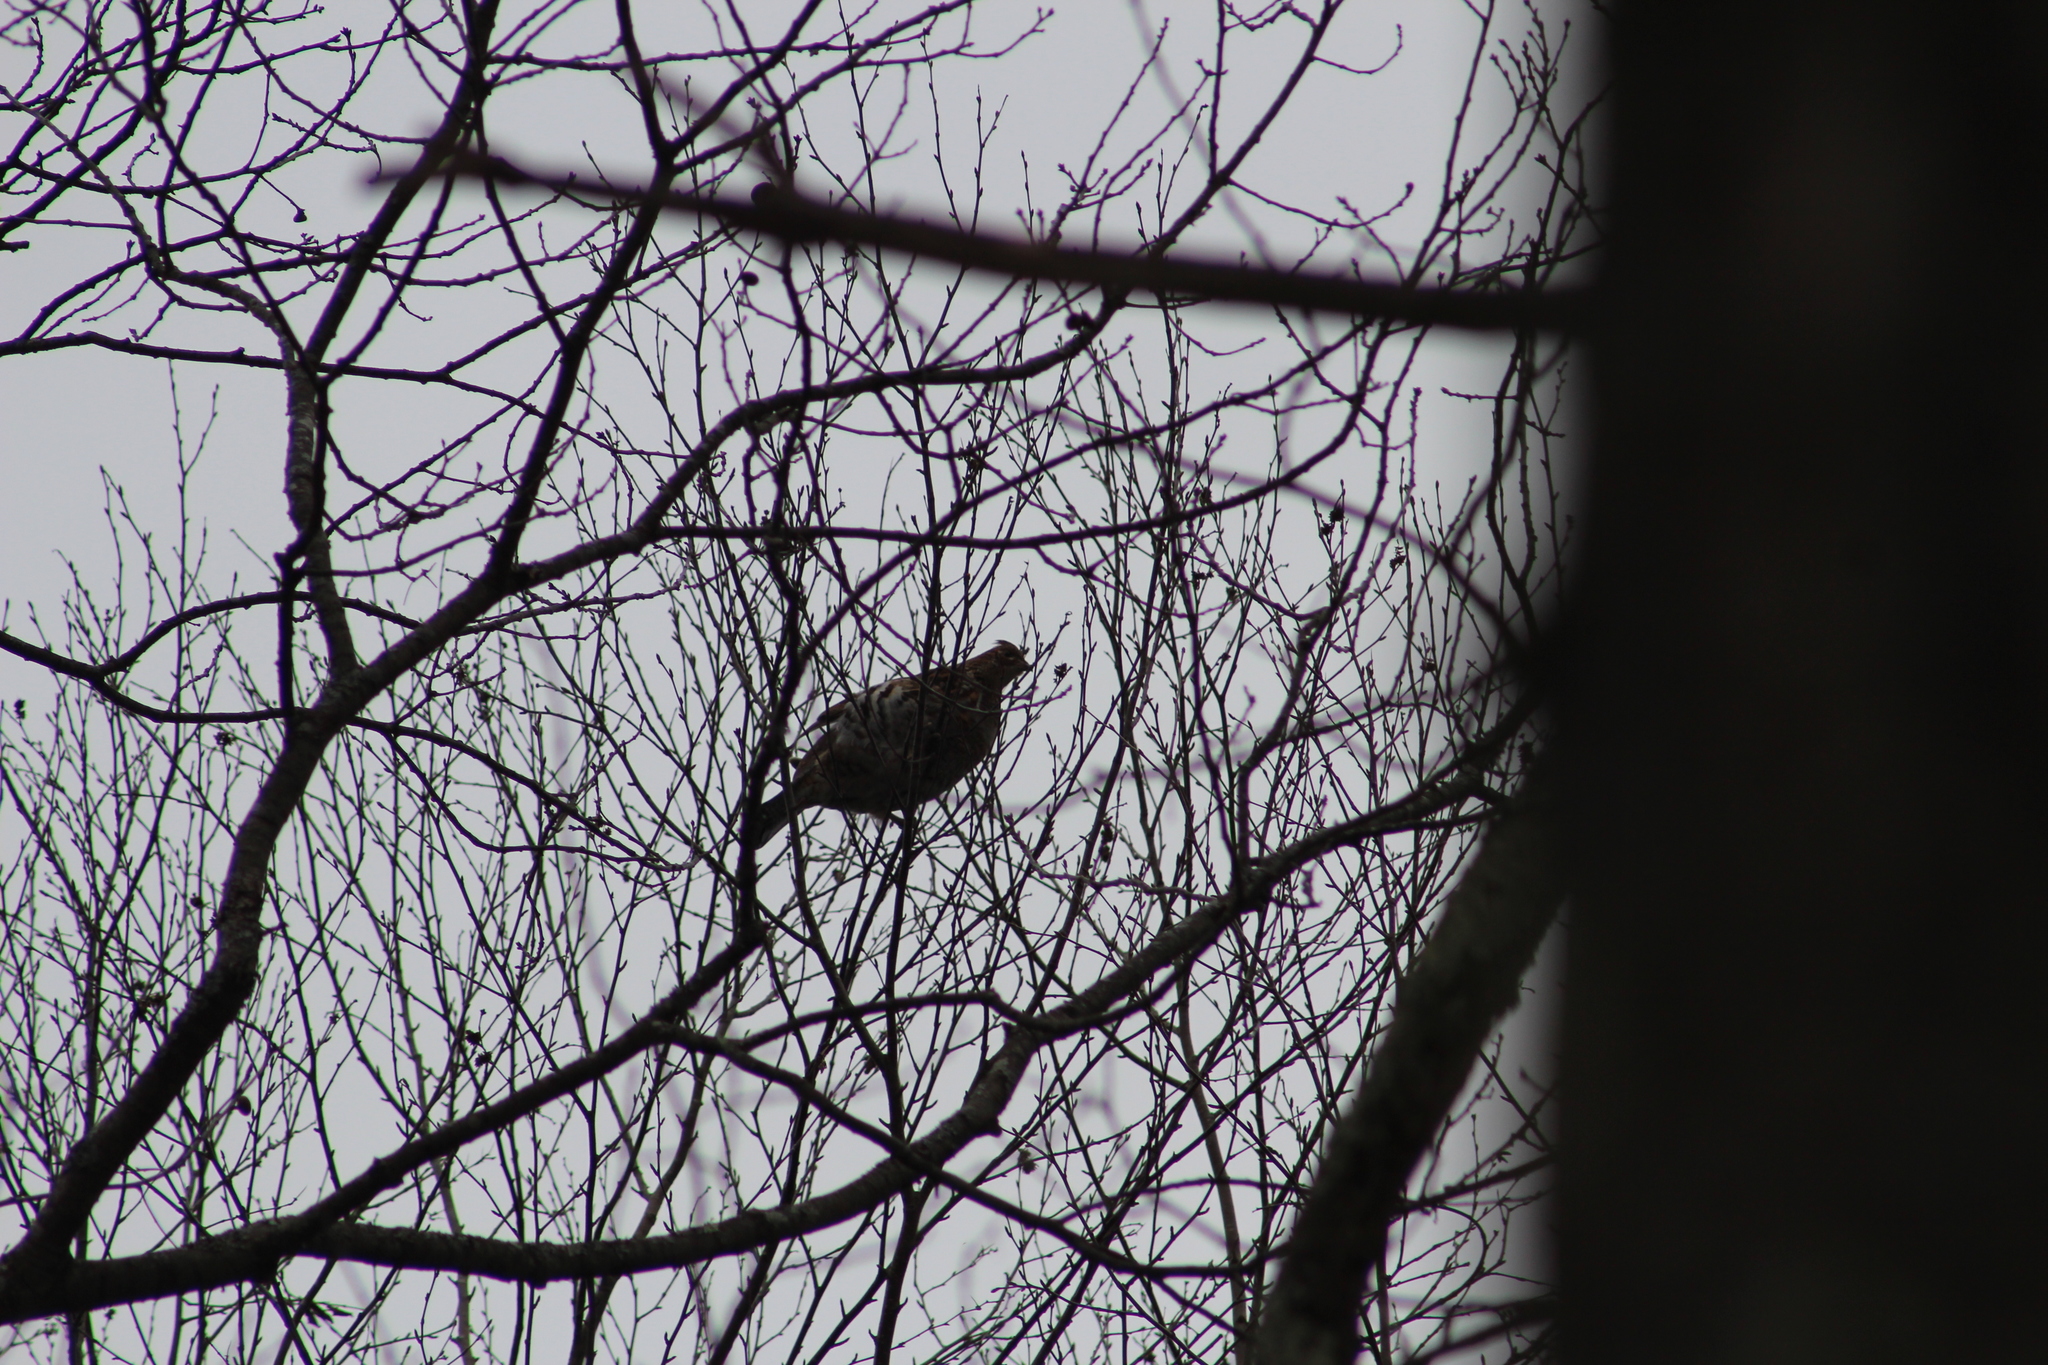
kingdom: Animalia
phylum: Chordata
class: Aves
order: Galliformes
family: Phasianidae
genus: Bonasa
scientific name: Bonasa umbellus
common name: Ruffed grouse
